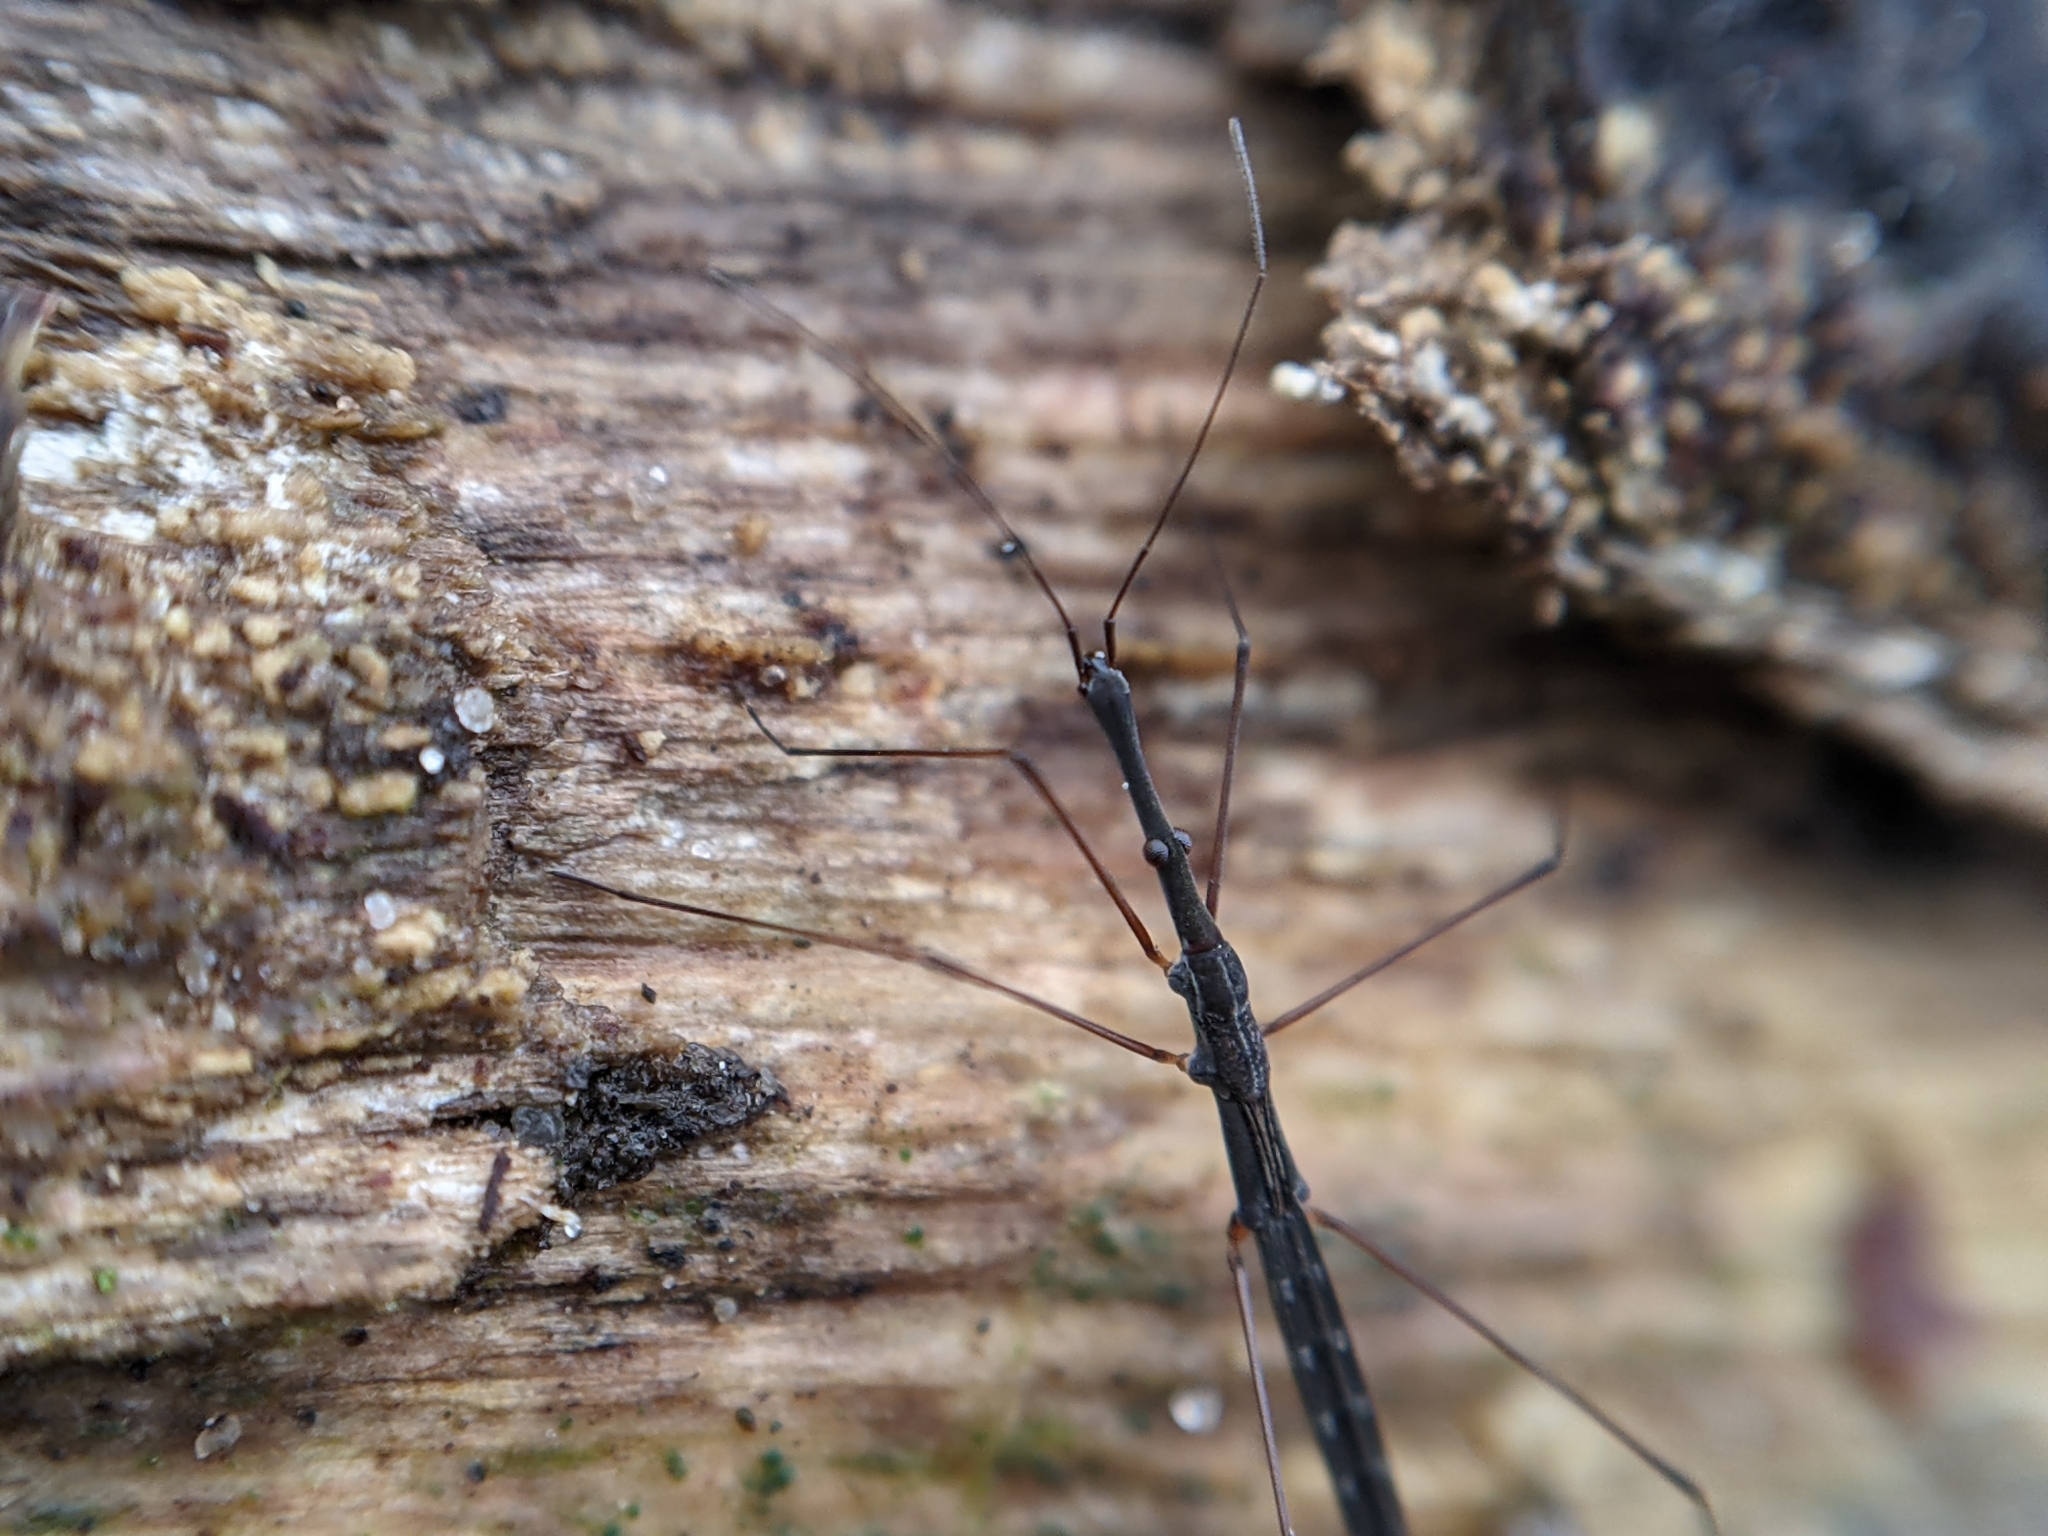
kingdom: Animalia
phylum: Arthropoda
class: Insecta
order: Hemiptera
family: Hydrometridae
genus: Hydrometra
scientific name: Hydrometra stagnorum
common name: Water measurer
